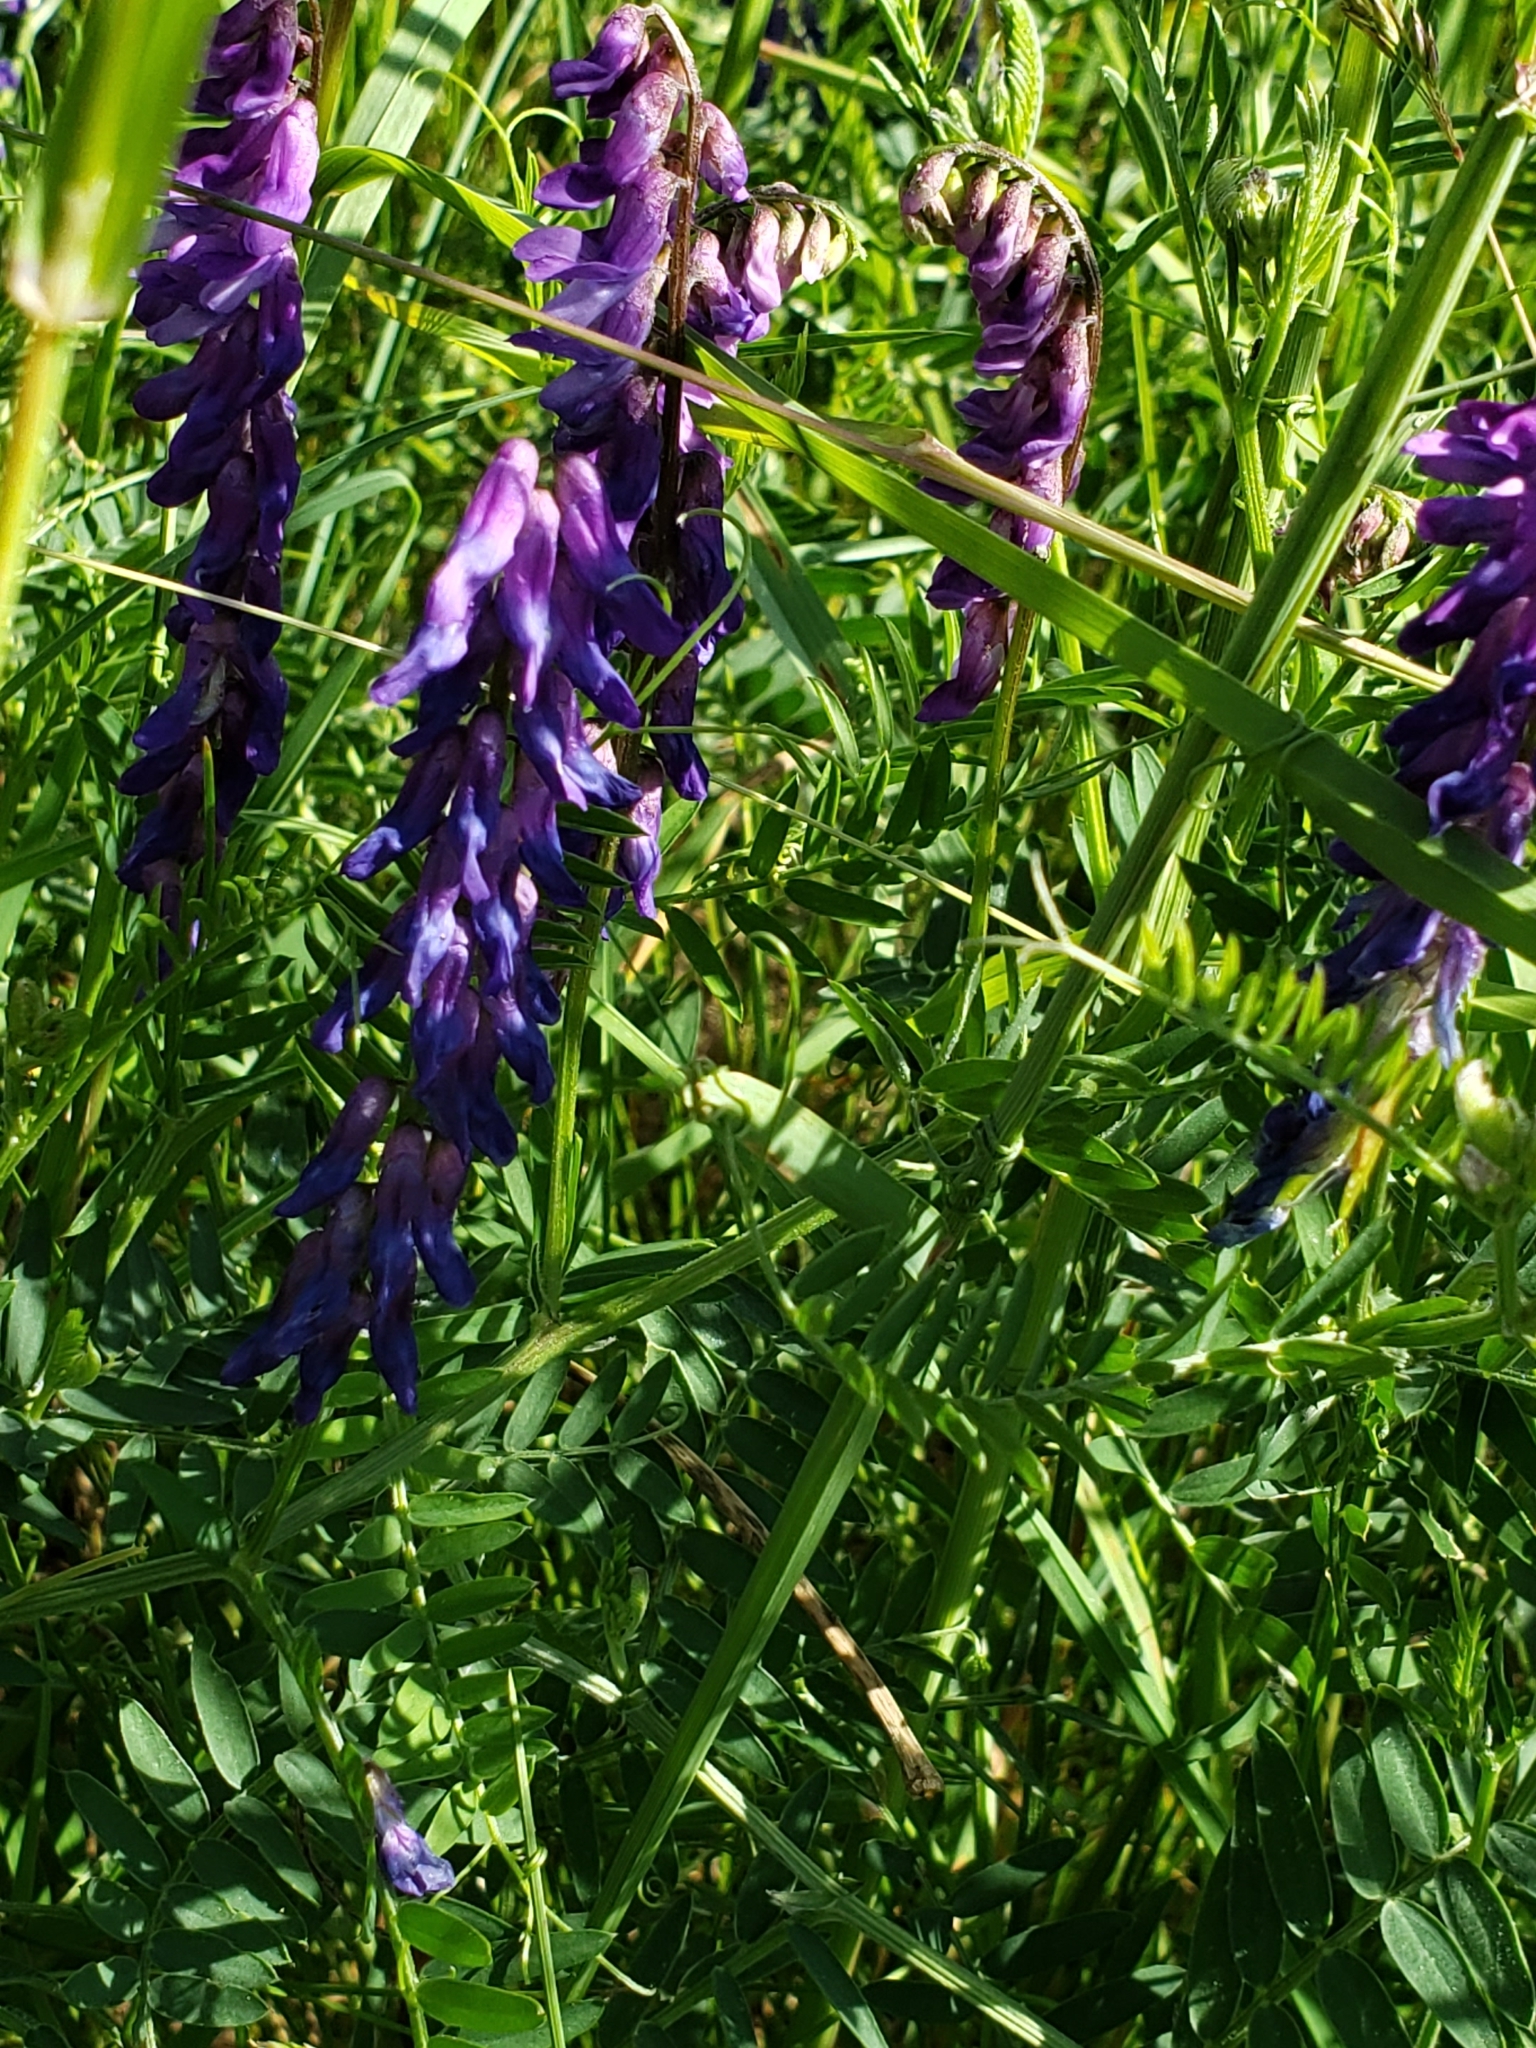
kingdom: Plantae
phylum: Tracheophyta
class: Magnoliopsida
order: Fabales
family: Fabaceae
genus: Vicia
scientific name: Vicia cracca
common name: Bird vetch
